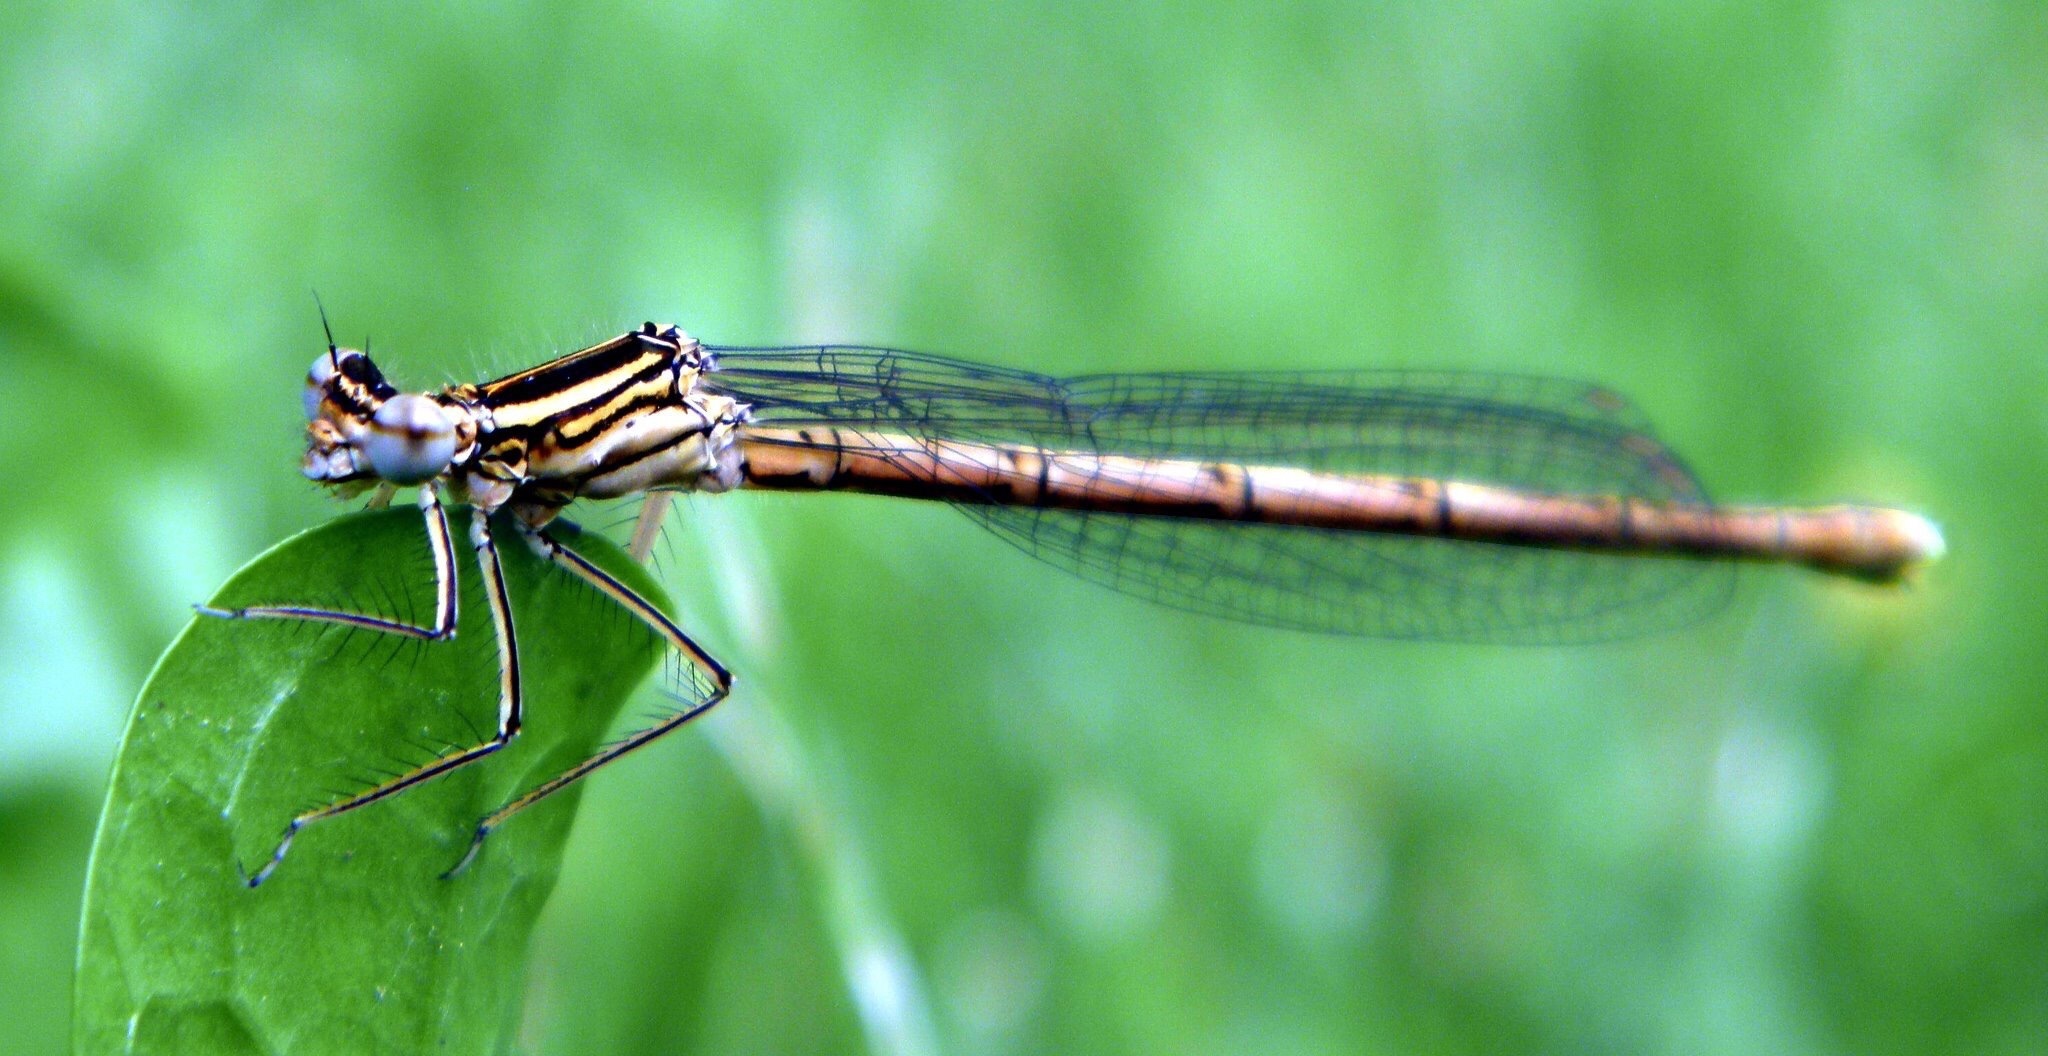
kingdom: Animalia
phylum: Arthropoda
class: Insecta
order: Odonata
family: Platycnemididae
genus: Platycnemis
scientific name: Platycnemis pennipes
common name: White-legged damselfly
